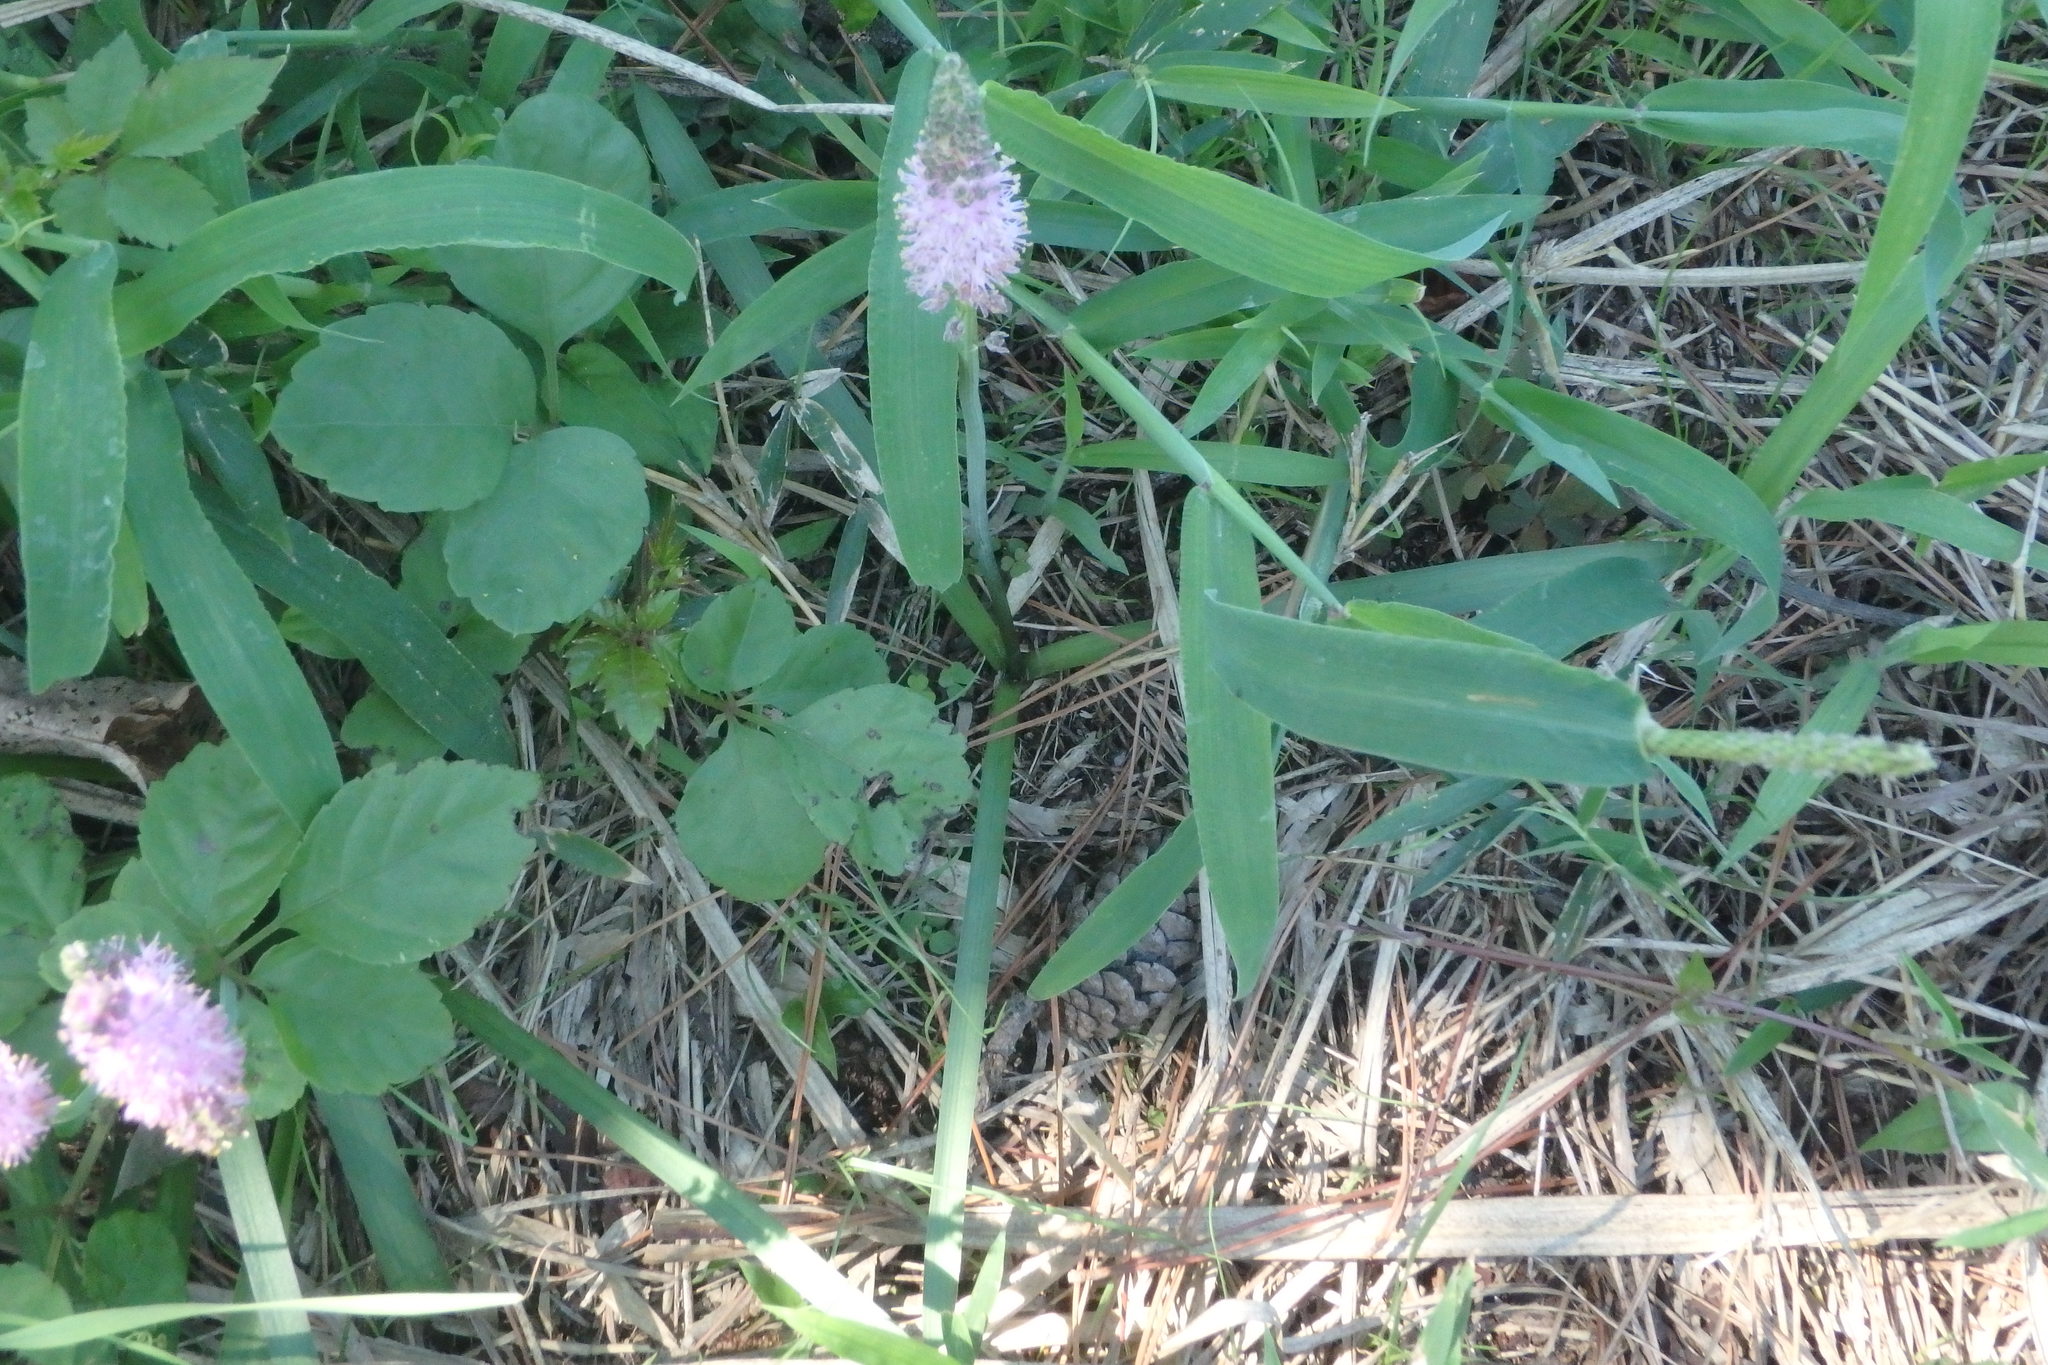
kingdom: Plantae
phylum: Tracheophyta
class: Liliopsida
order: Asparagales
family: Asparagaceae
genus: Barnardia
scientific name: Barnardia japonica
